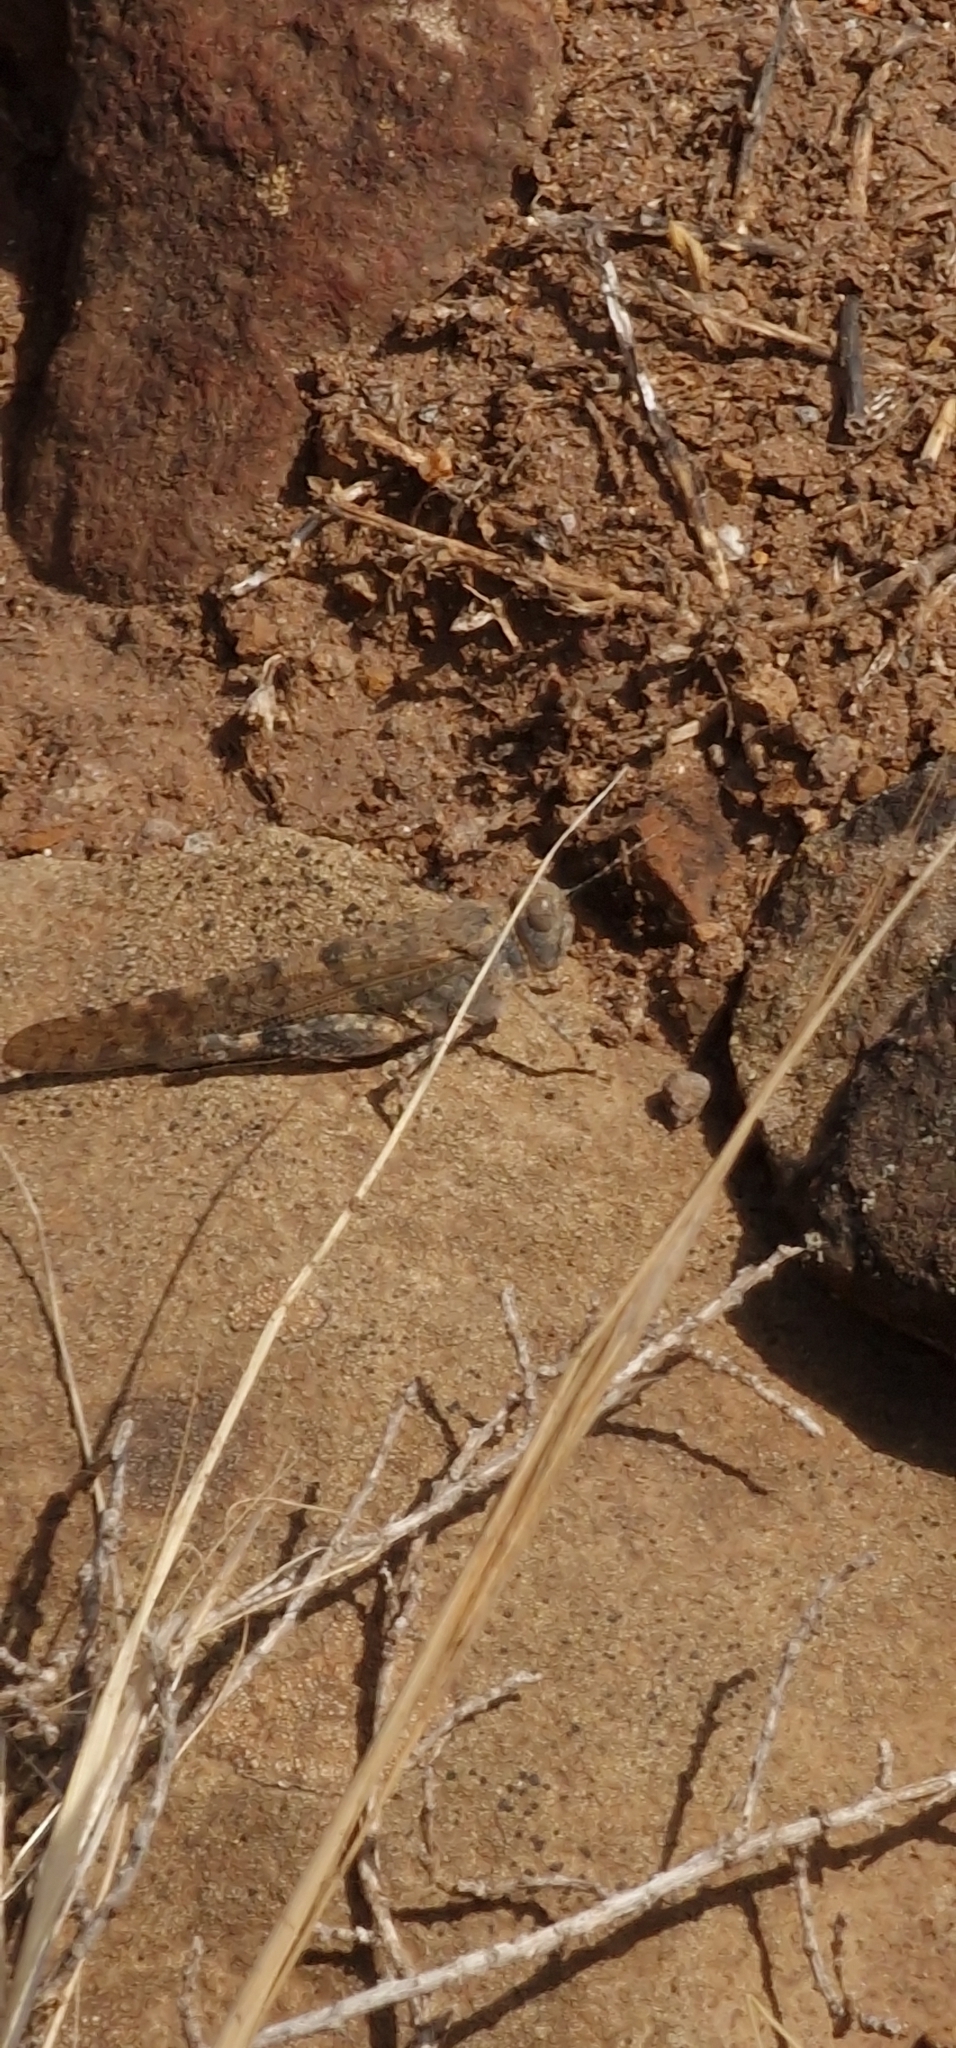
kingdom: Animalia
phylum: Arthropoda
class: Insecta
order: Orthoptera
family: Acrididae
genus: Sphingonotus
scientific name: Sphingonotus rubescens
